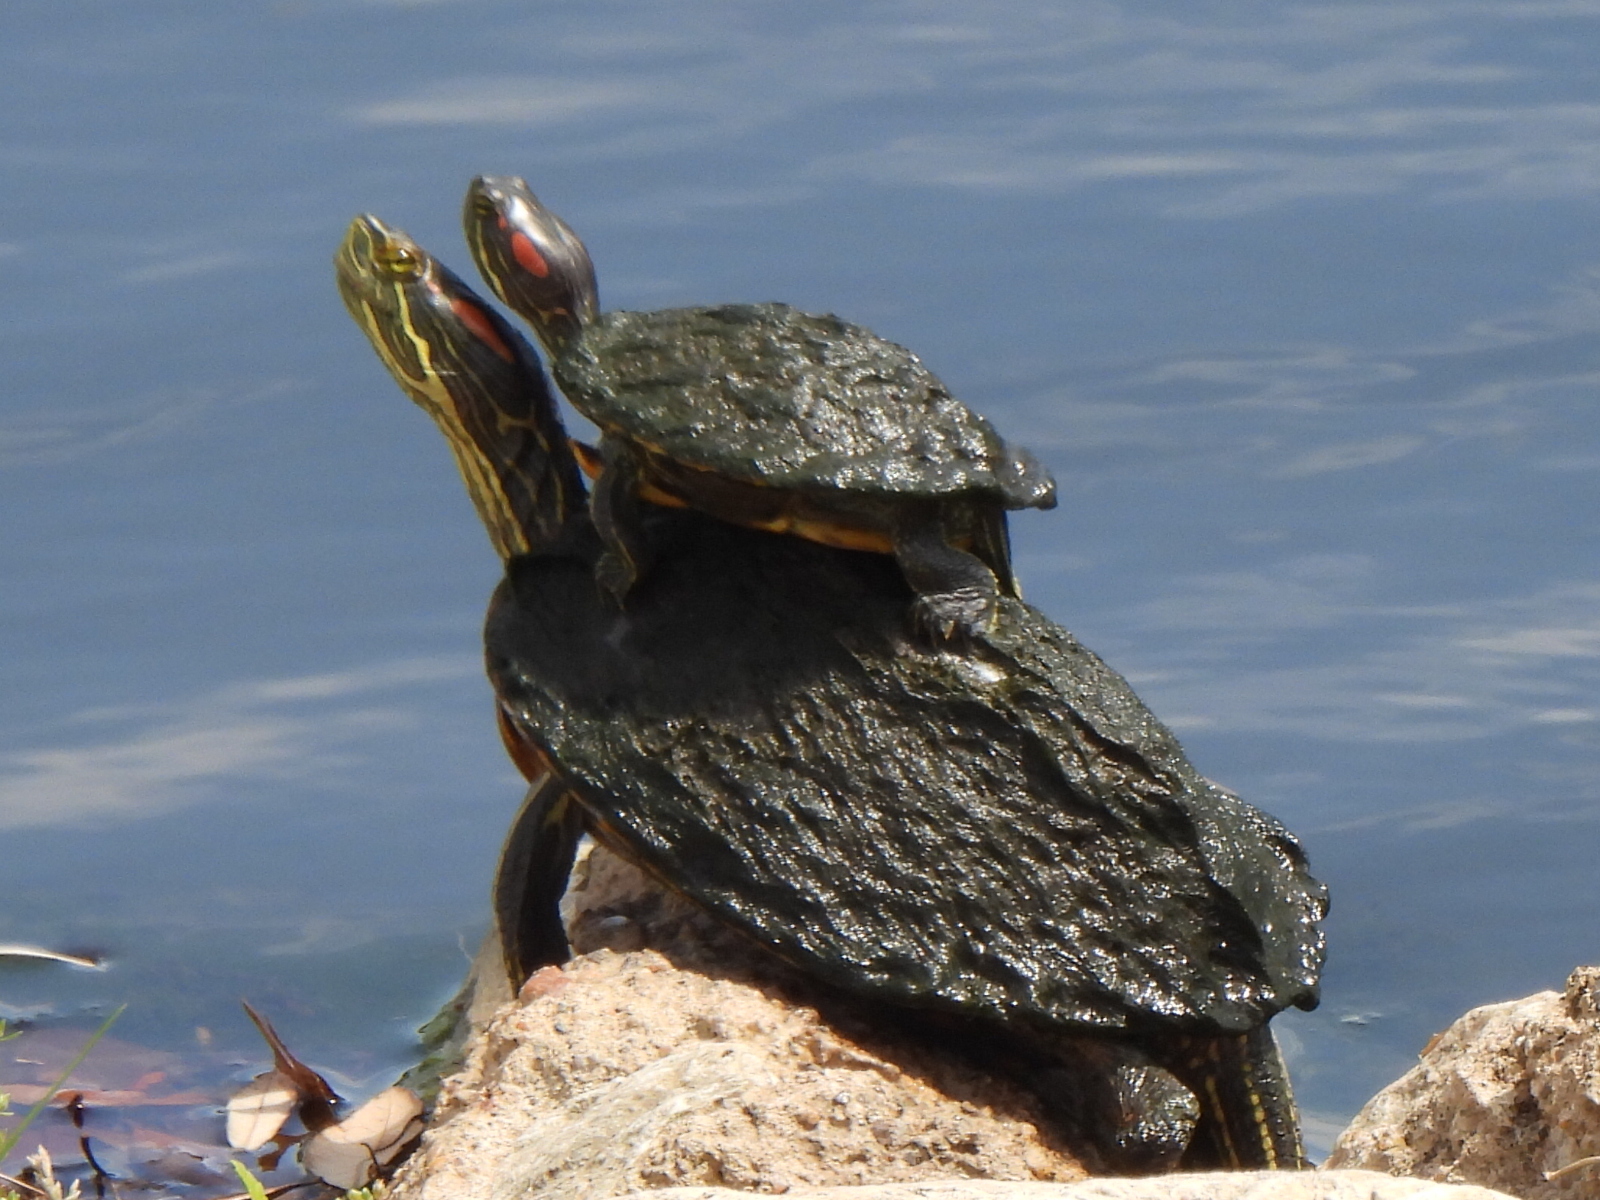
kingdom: Animalia
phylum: Chordata
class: Testudines
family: Emydidae
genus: Trachemys
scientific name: Trachemys scripta
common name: Slider
